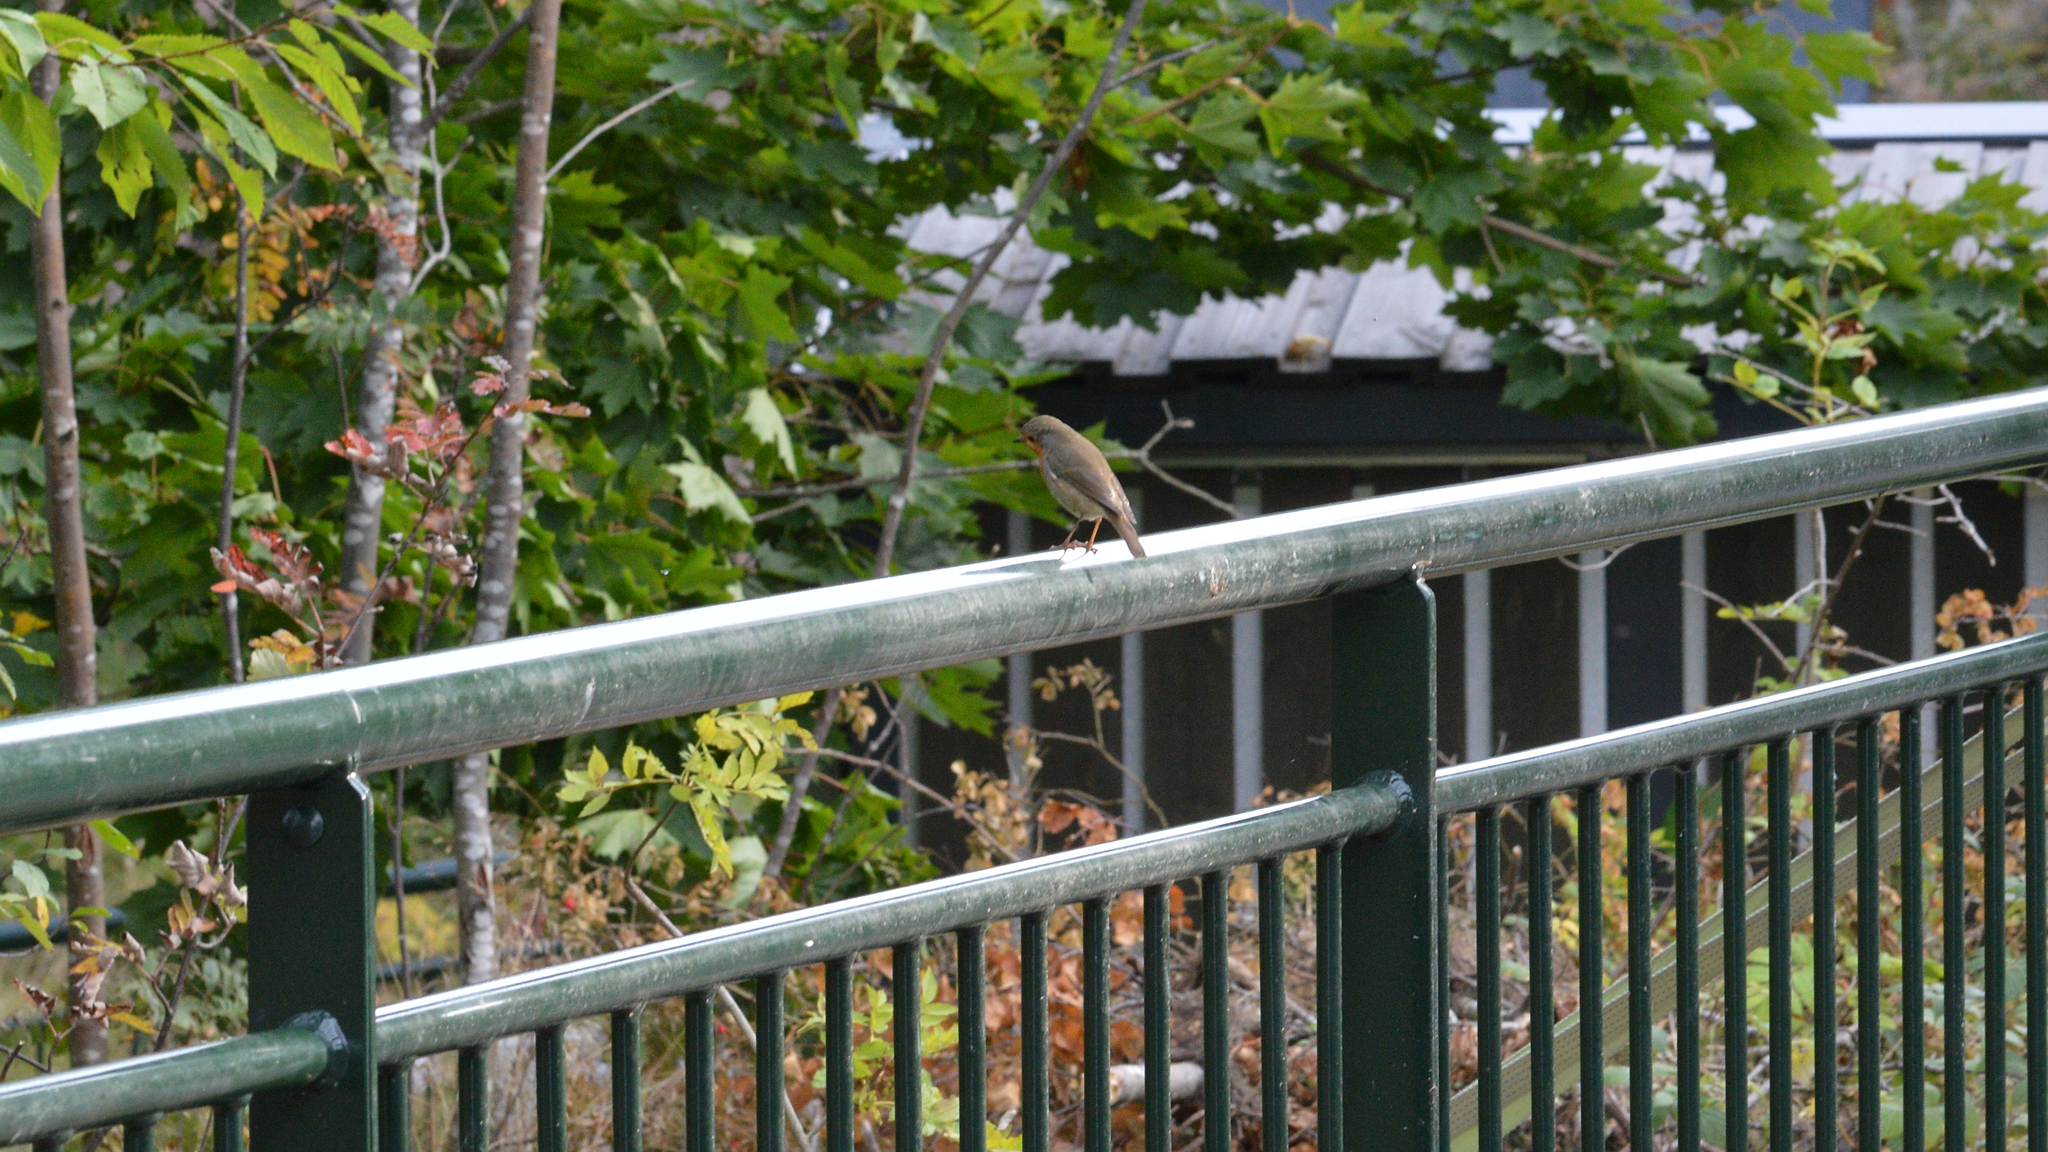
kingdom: Animalia
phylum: Chordata
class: Aves
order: Passeriformes
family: Muscicapidae
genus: Erithacus
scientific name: Erithacus rubecula
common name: European robin
